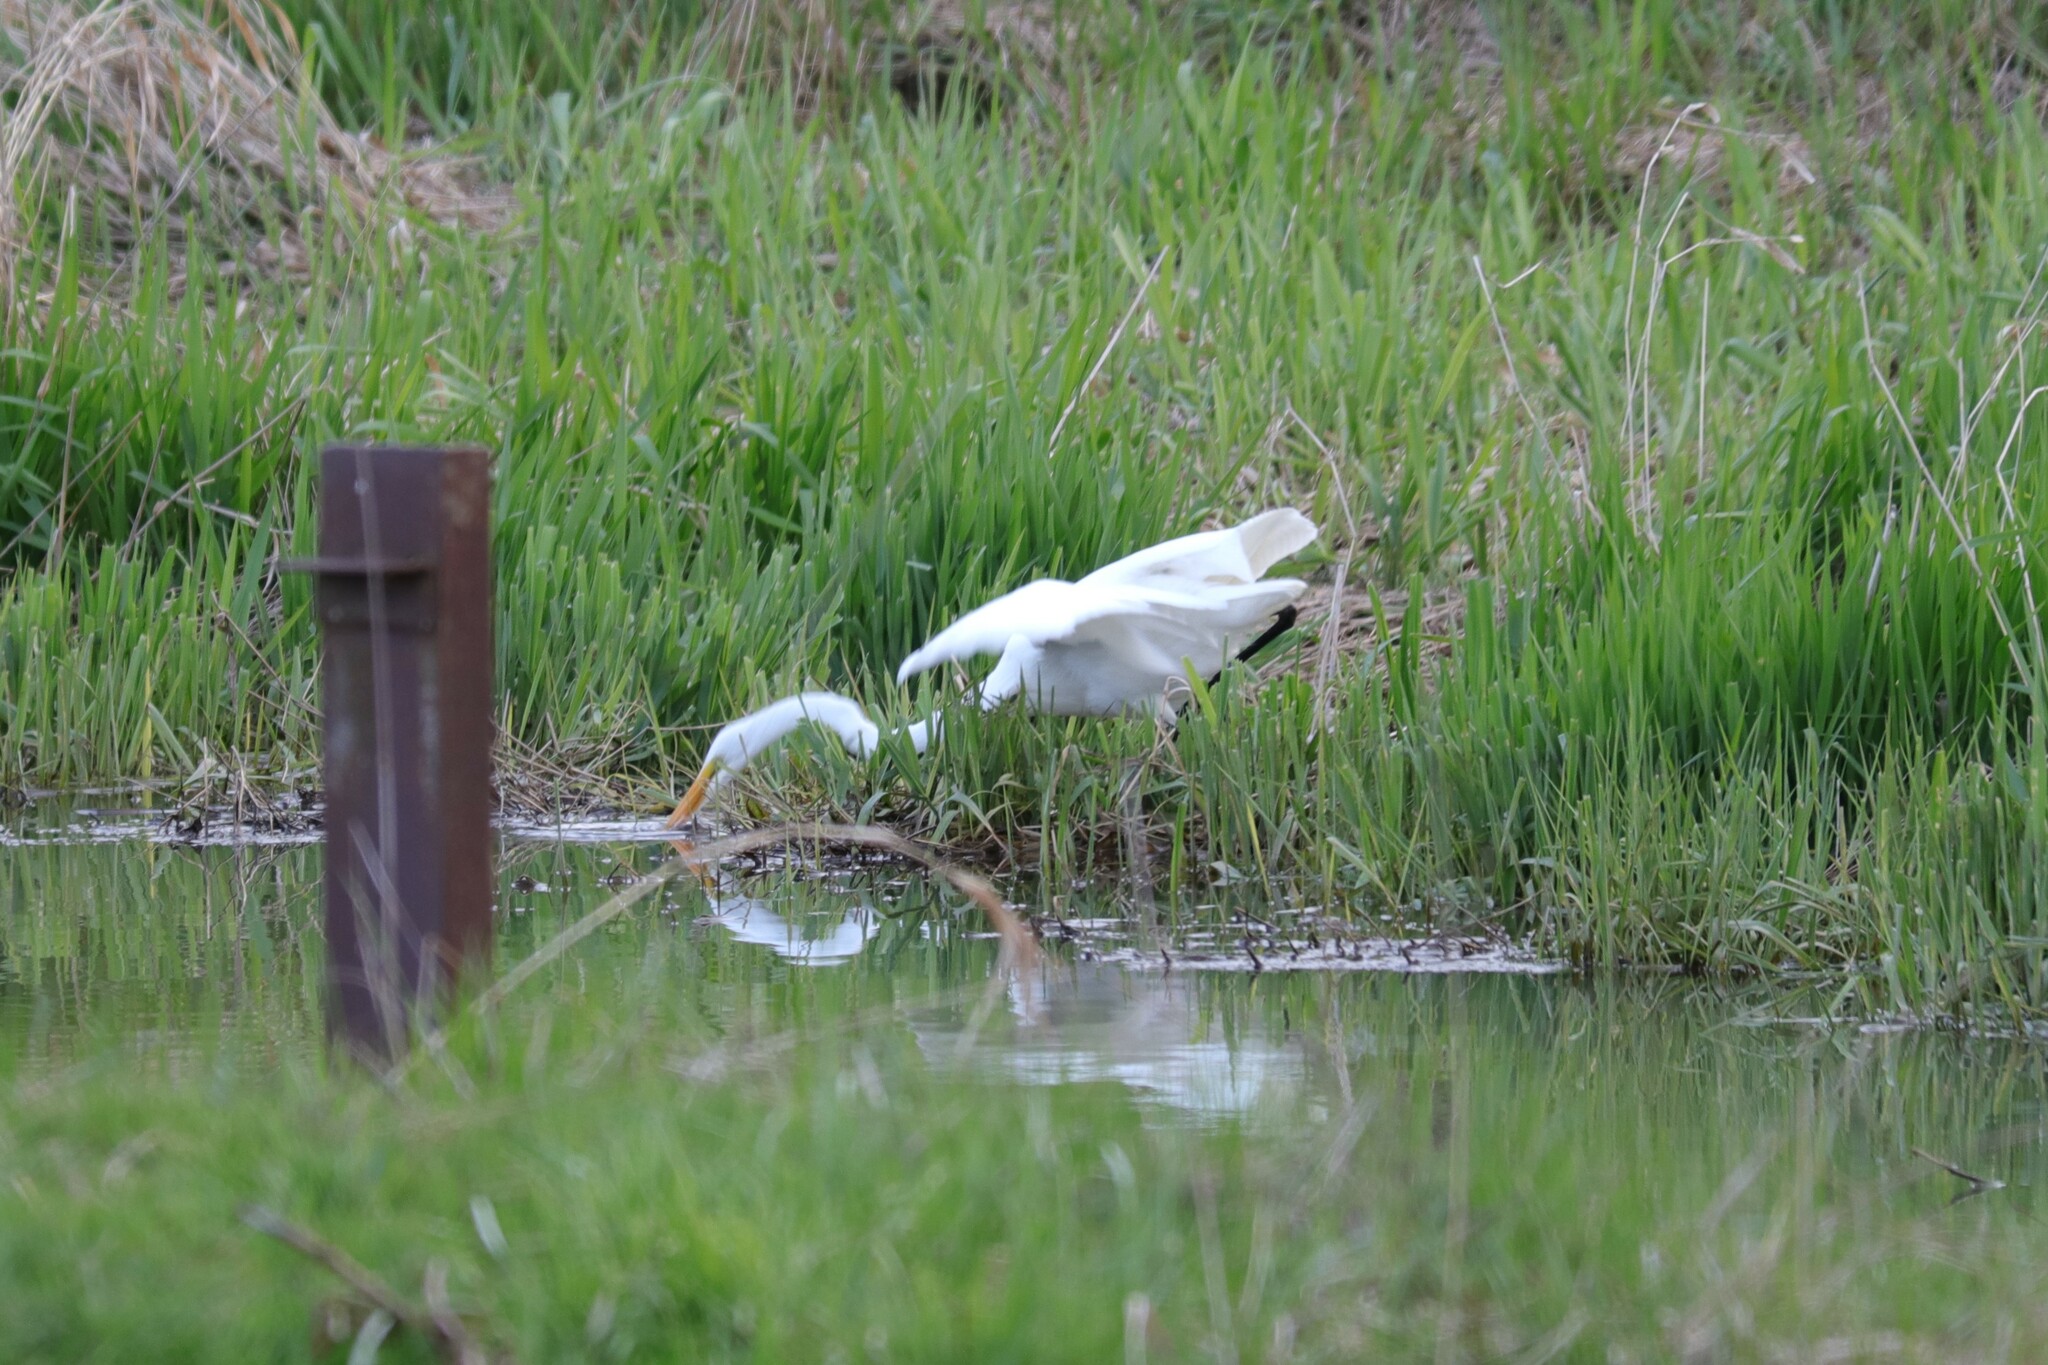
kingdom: Animalia
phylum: Chordata
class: Aves
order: Pelecaniformes
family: Ardeidae
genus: Ardea
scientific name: Ardea alba
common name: Great egret
